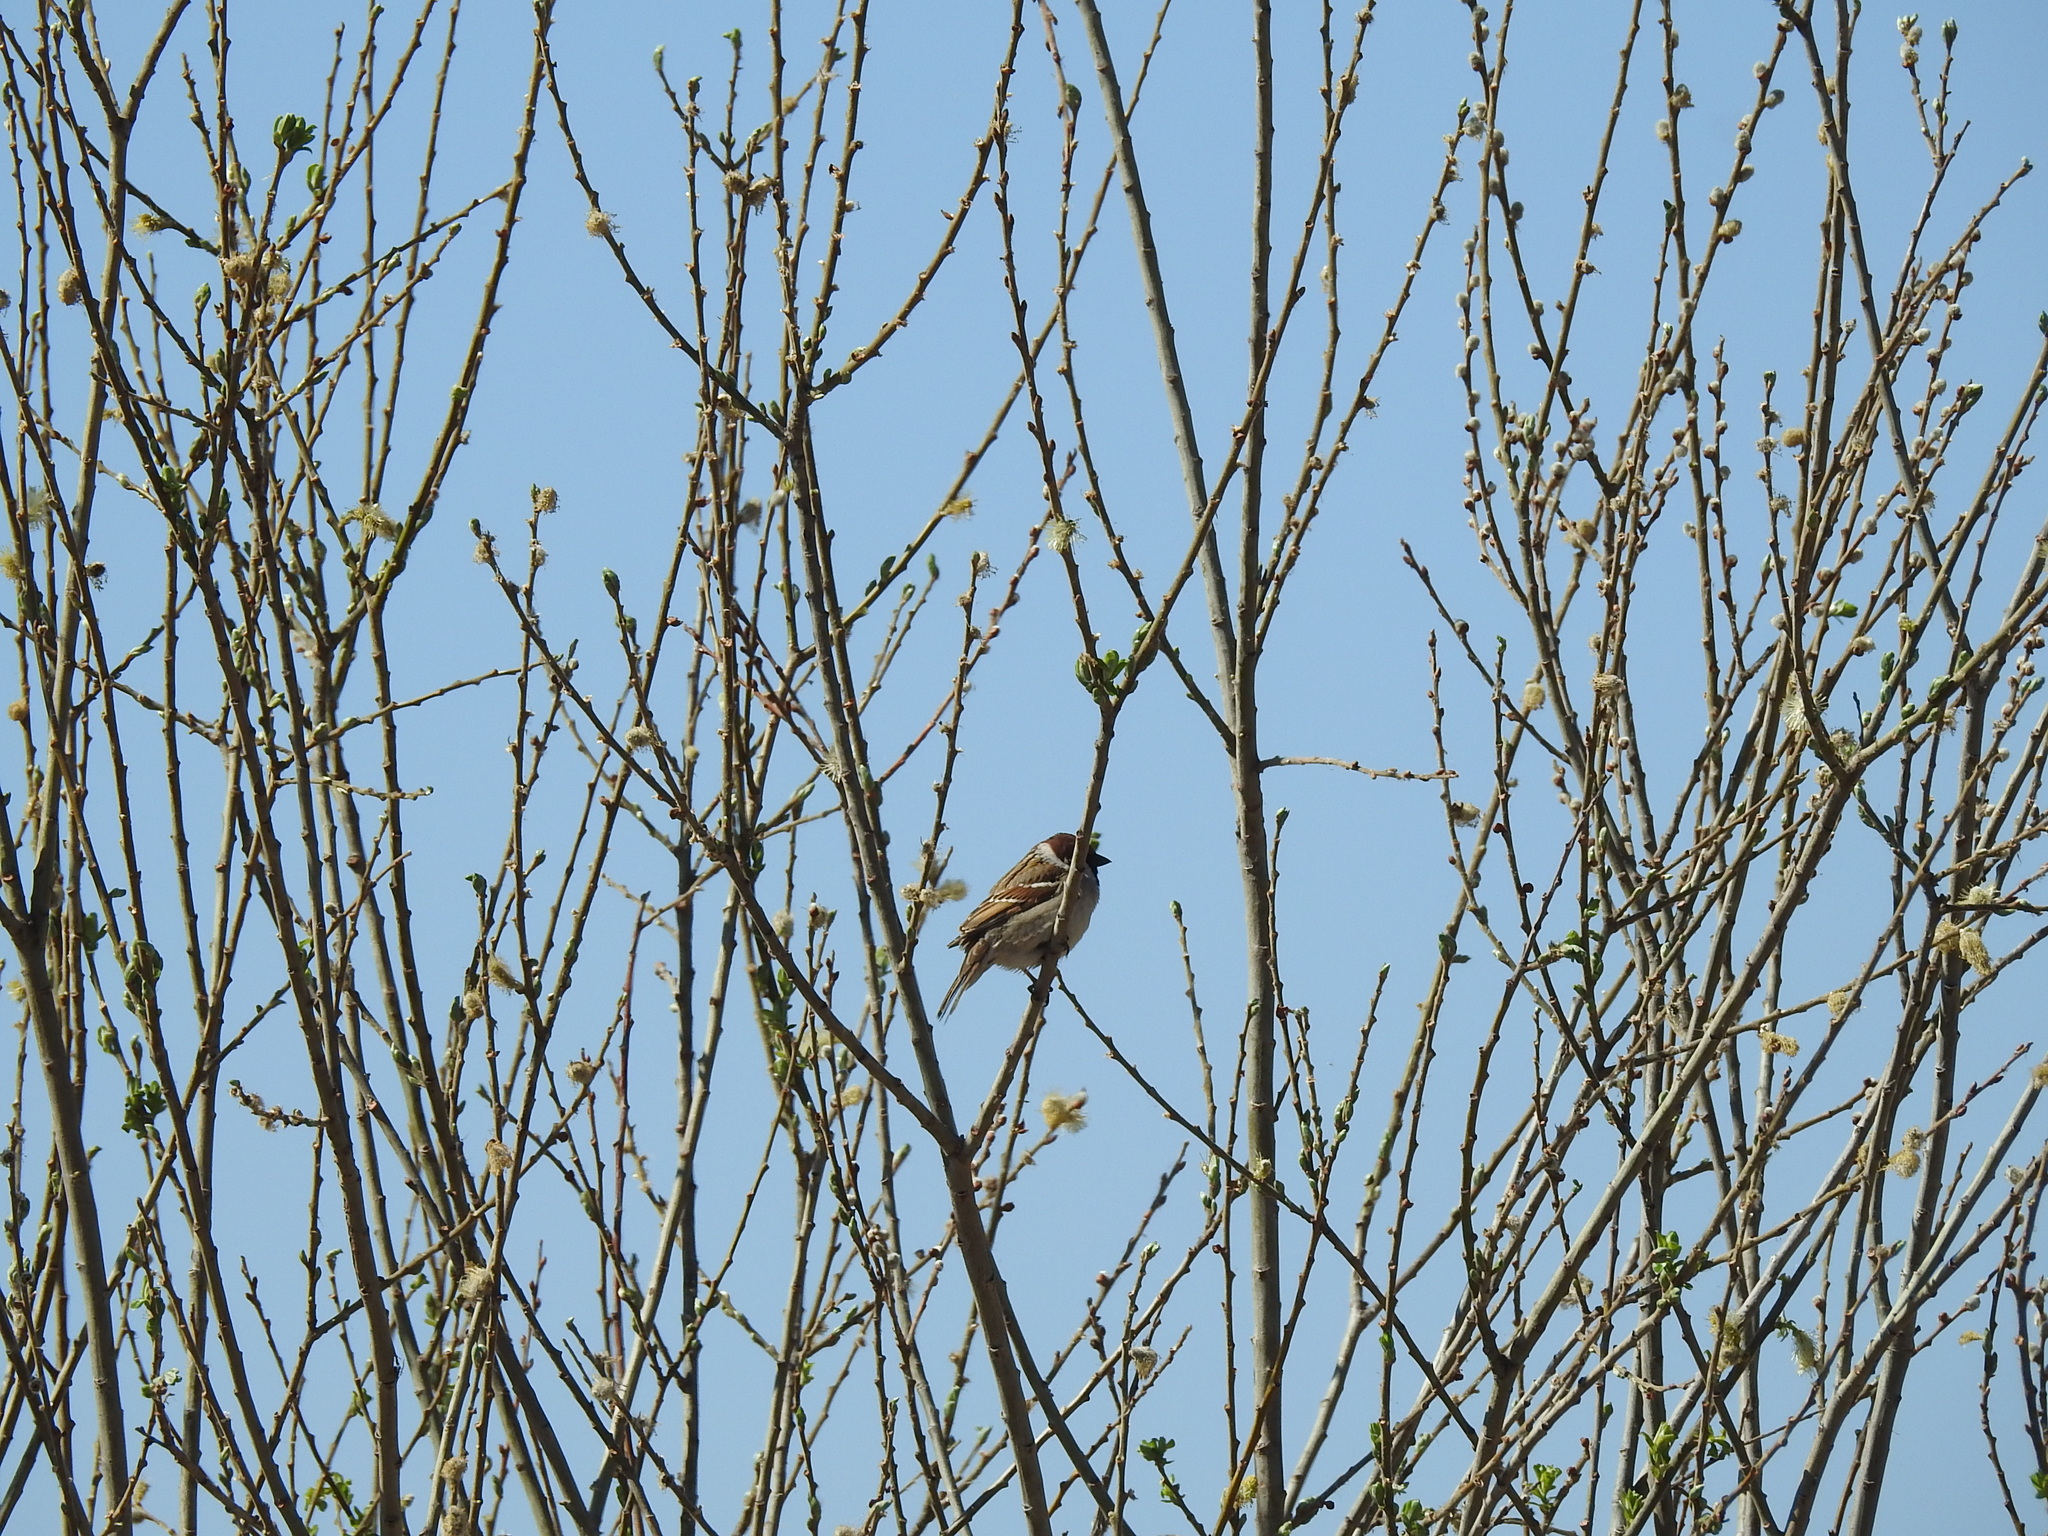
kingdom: Animalia
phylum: Chordata
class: Aves
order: Passeriformes
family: Passeridae
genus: Passer
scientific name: Passer montanus
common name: Eurasian tree sparrow
